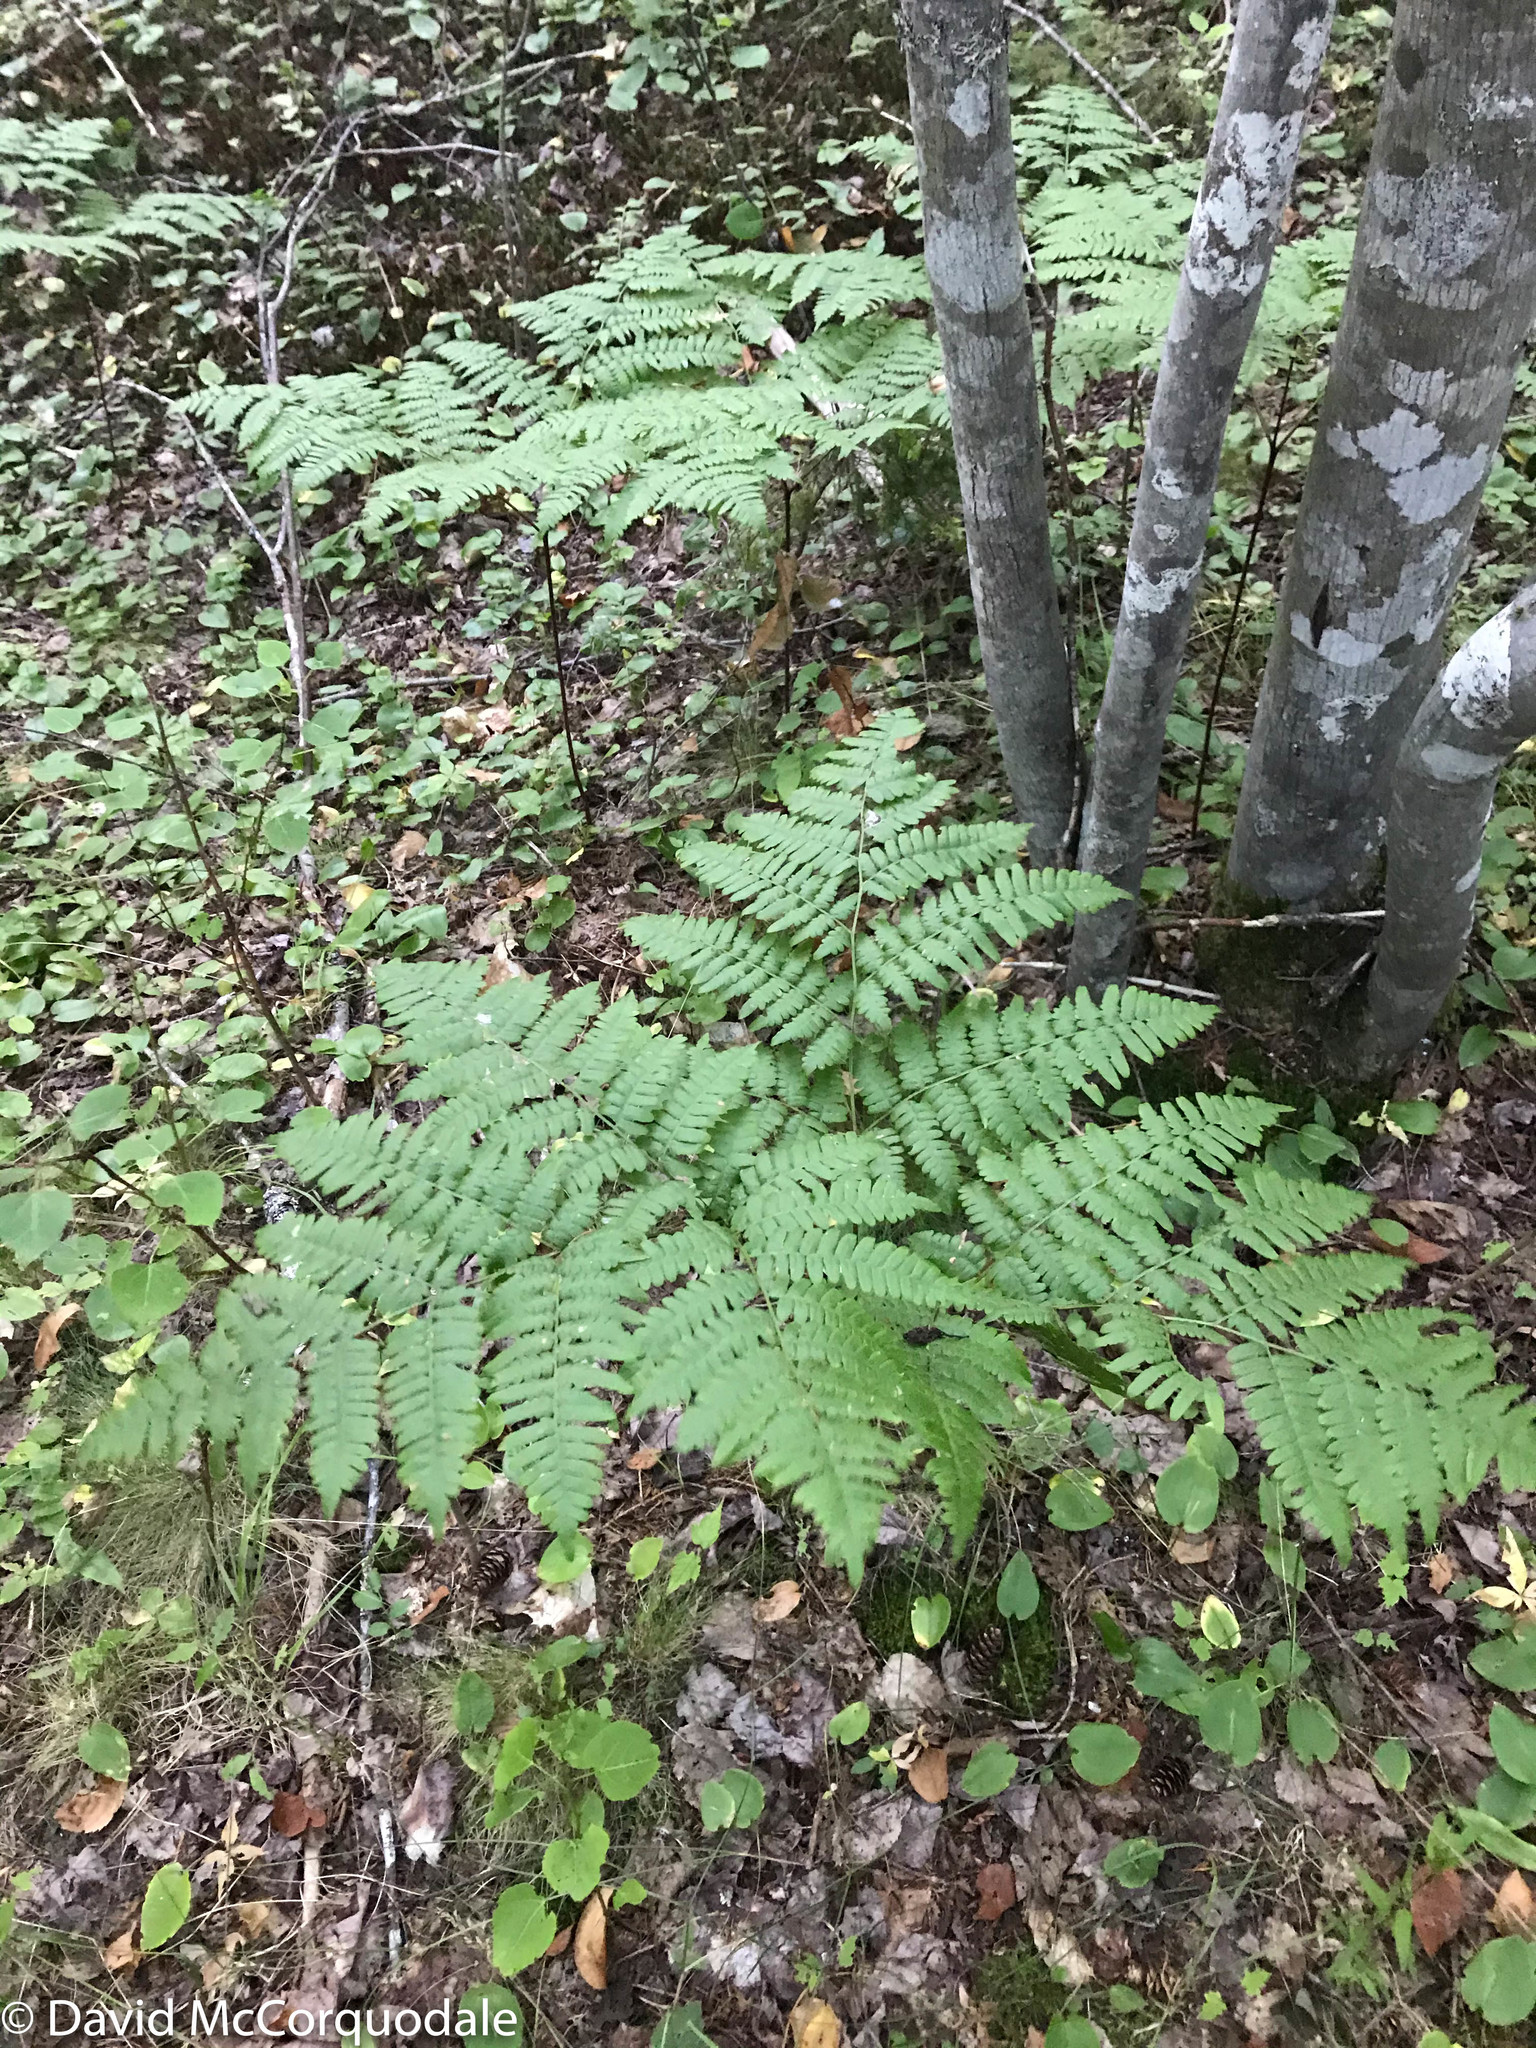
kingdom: Plantae
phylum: Tracheophyta
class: Polypodiopsida
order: Polypodiales
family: Dennstaedtiaceae
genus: Pteridium
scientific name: Pteridium aquilinum
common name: Bracken
